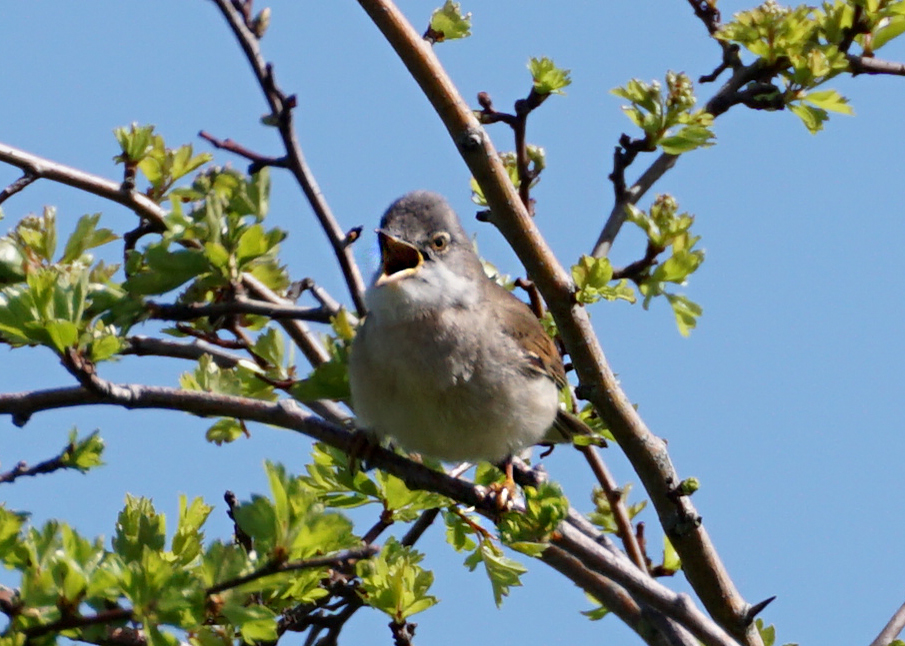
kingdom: Animalia
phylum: Chordata
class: Aves
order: Passeriformes
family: Sylviidae
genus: Sylvia
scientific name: Sylvia communis
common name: Common whitethroat
